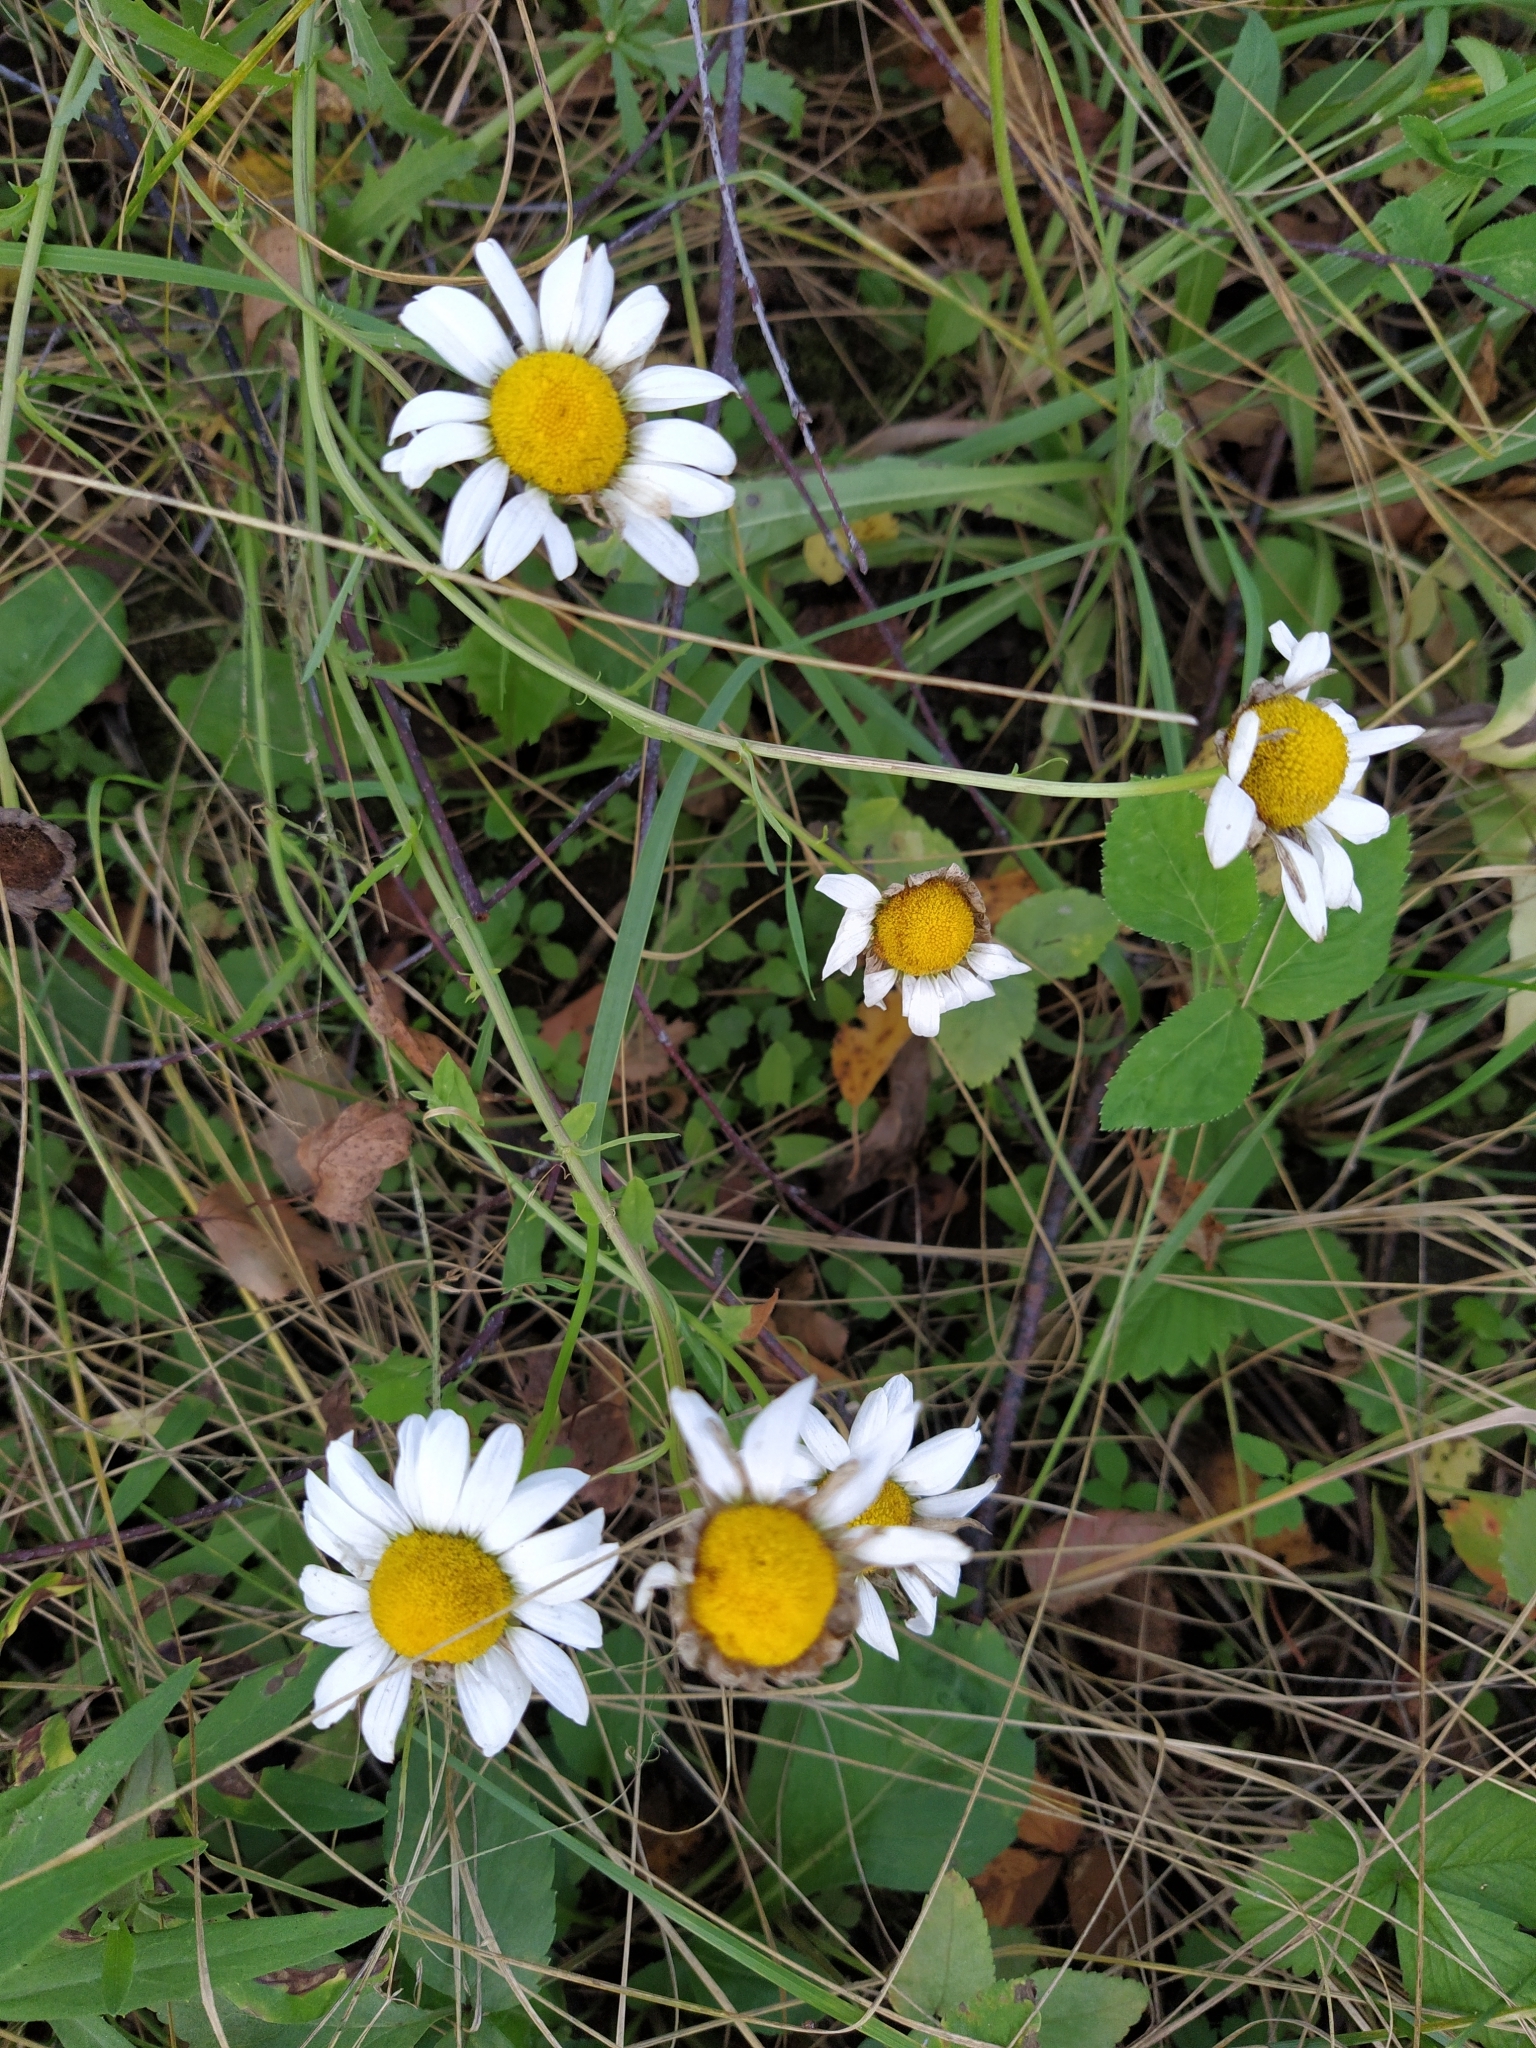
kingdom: Plantae
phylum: Tracheophyta
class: Magnoliopsida
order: Asterales
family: Asteraceae
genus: Leucanthemum
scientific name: Leucanthemum vulgare
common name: Oxeye daisy
